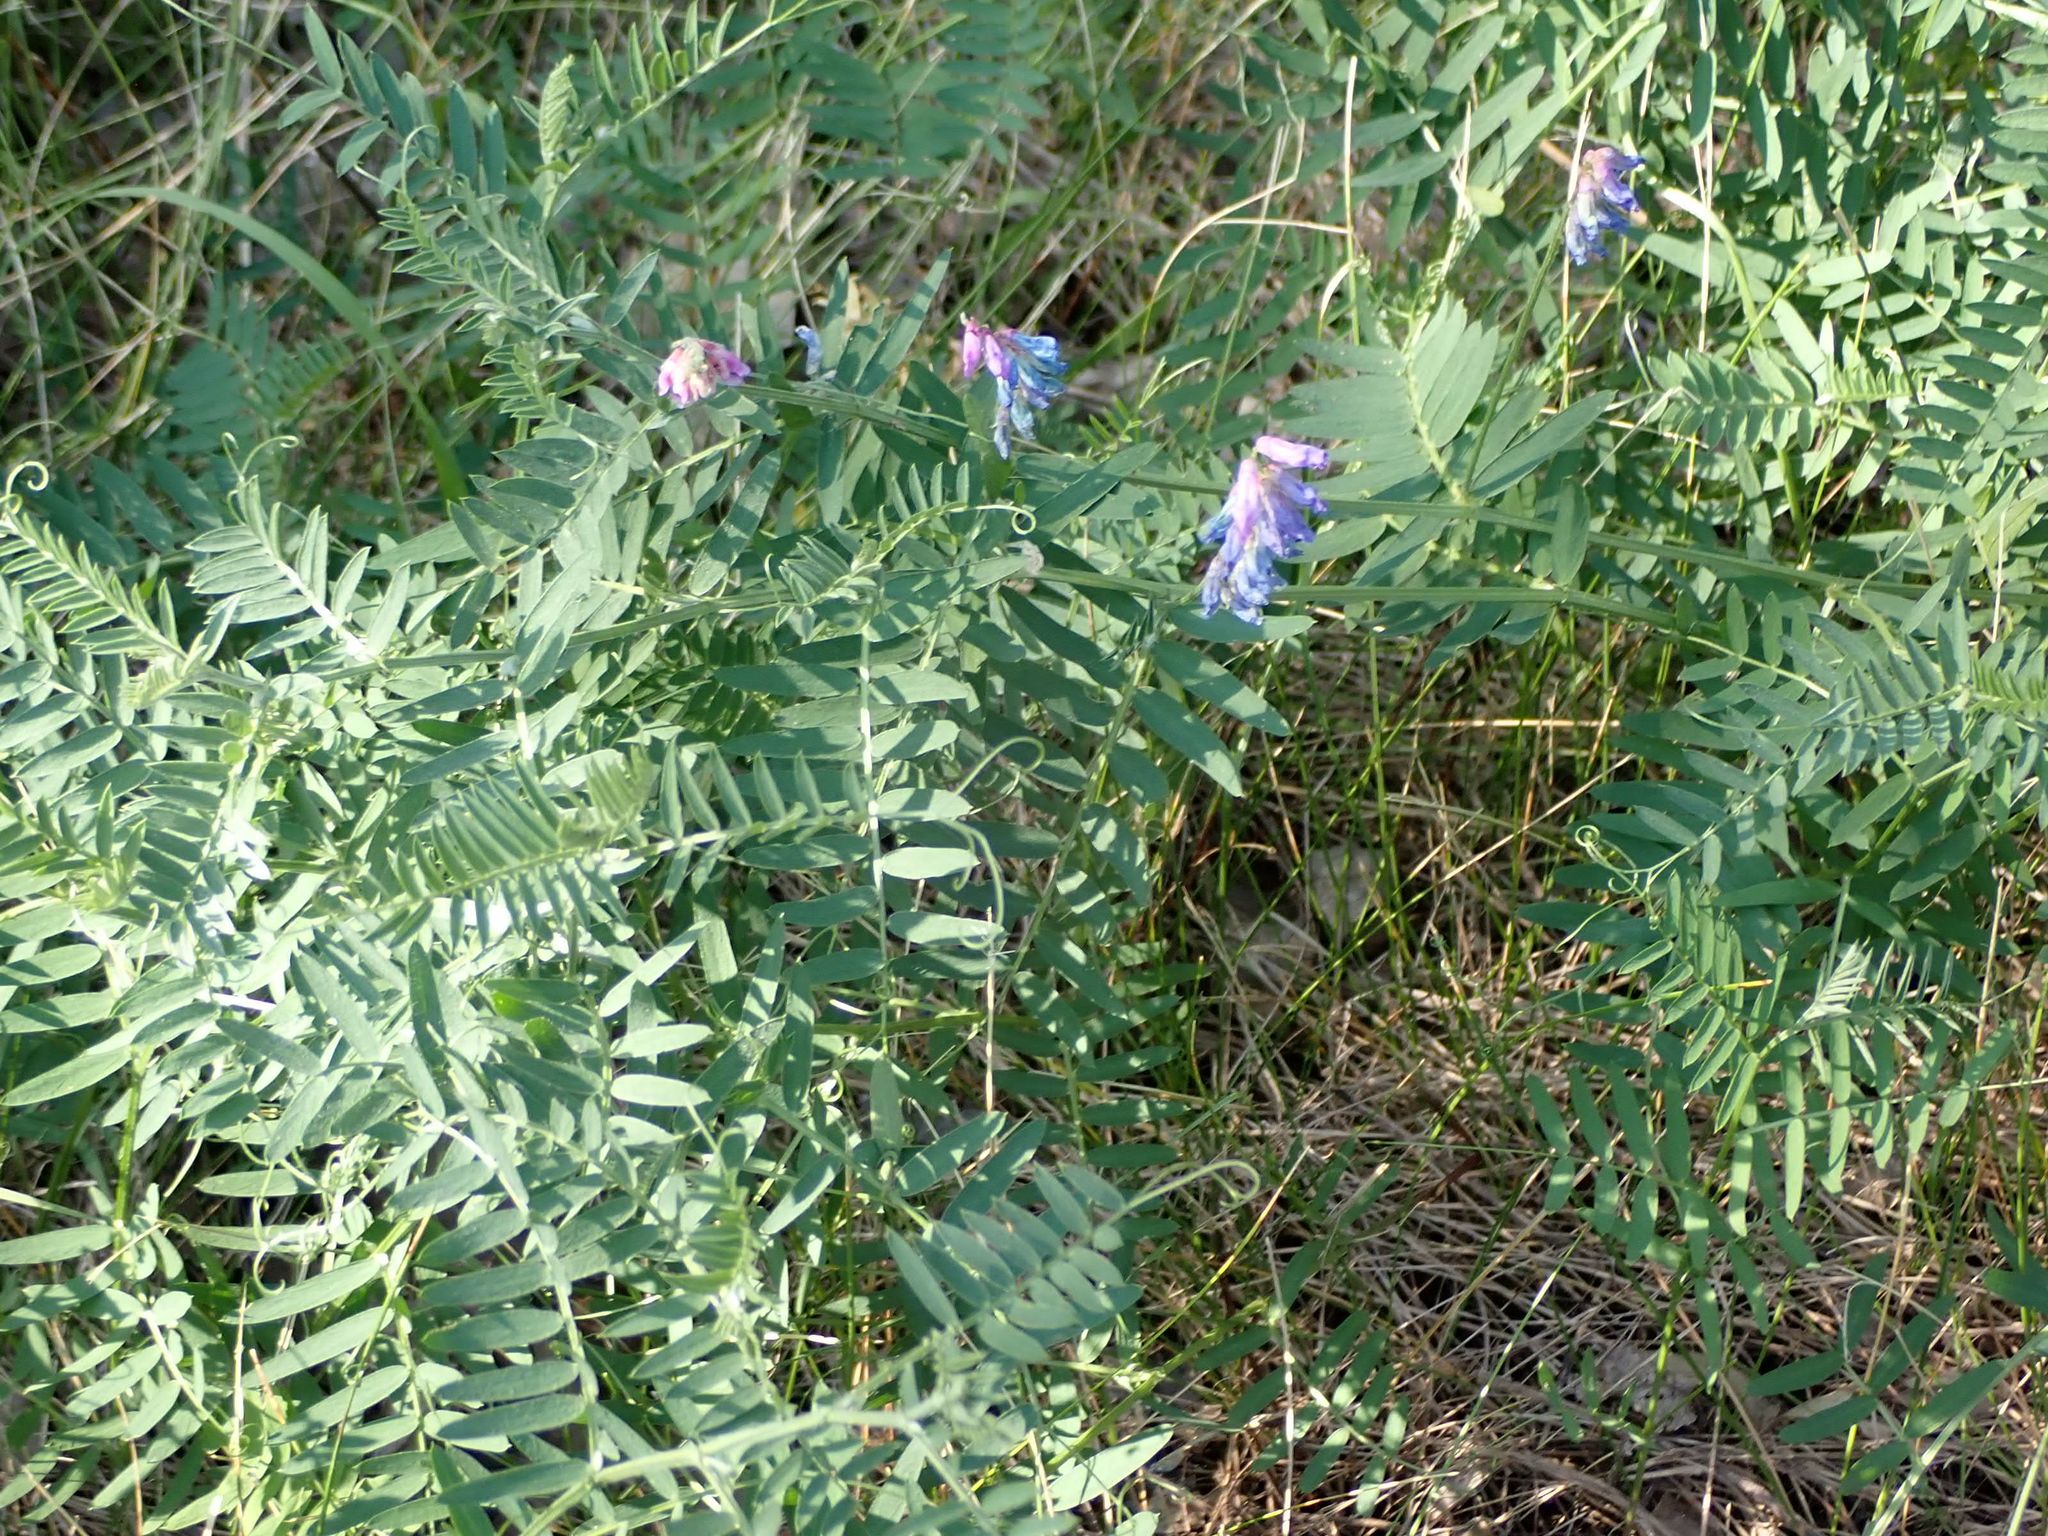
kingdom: Plantae
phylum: Tracheophyta
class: Magnoliopsida
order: Fabales
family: Fabaceae
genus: Vicia
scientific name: Vicia cracca
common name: Bird vetch
